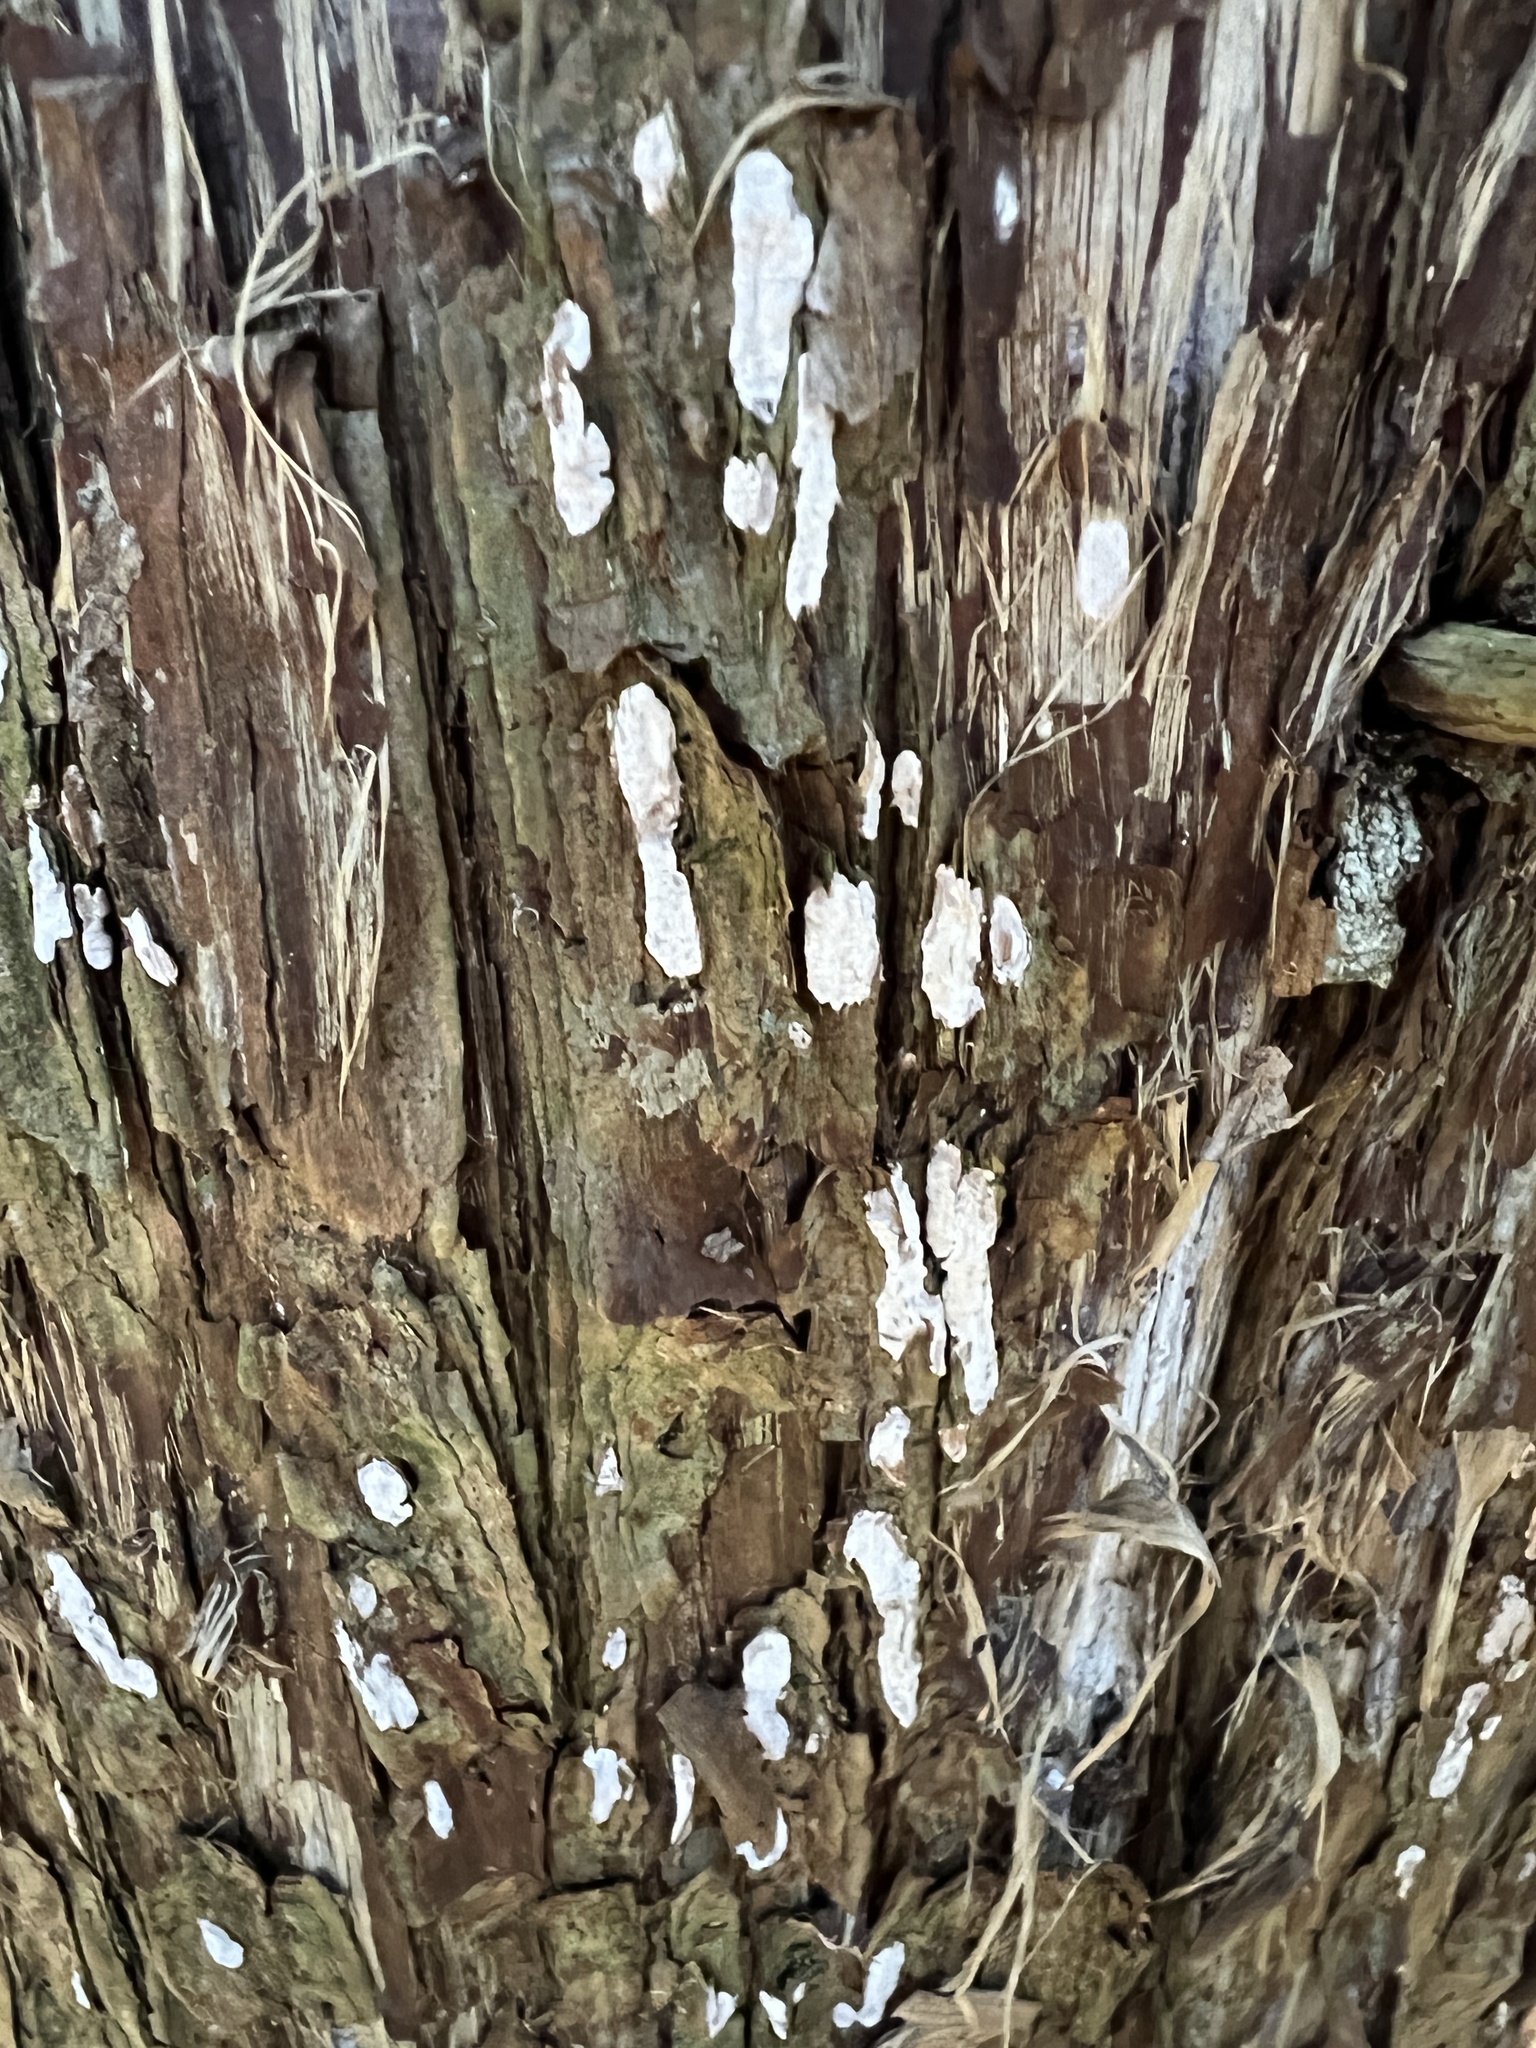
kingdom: Fungi
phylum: Basidiomycota
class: Agaricomycetes
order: Agaricales
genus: Dendrothele
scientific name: Dendrothele nivosa
